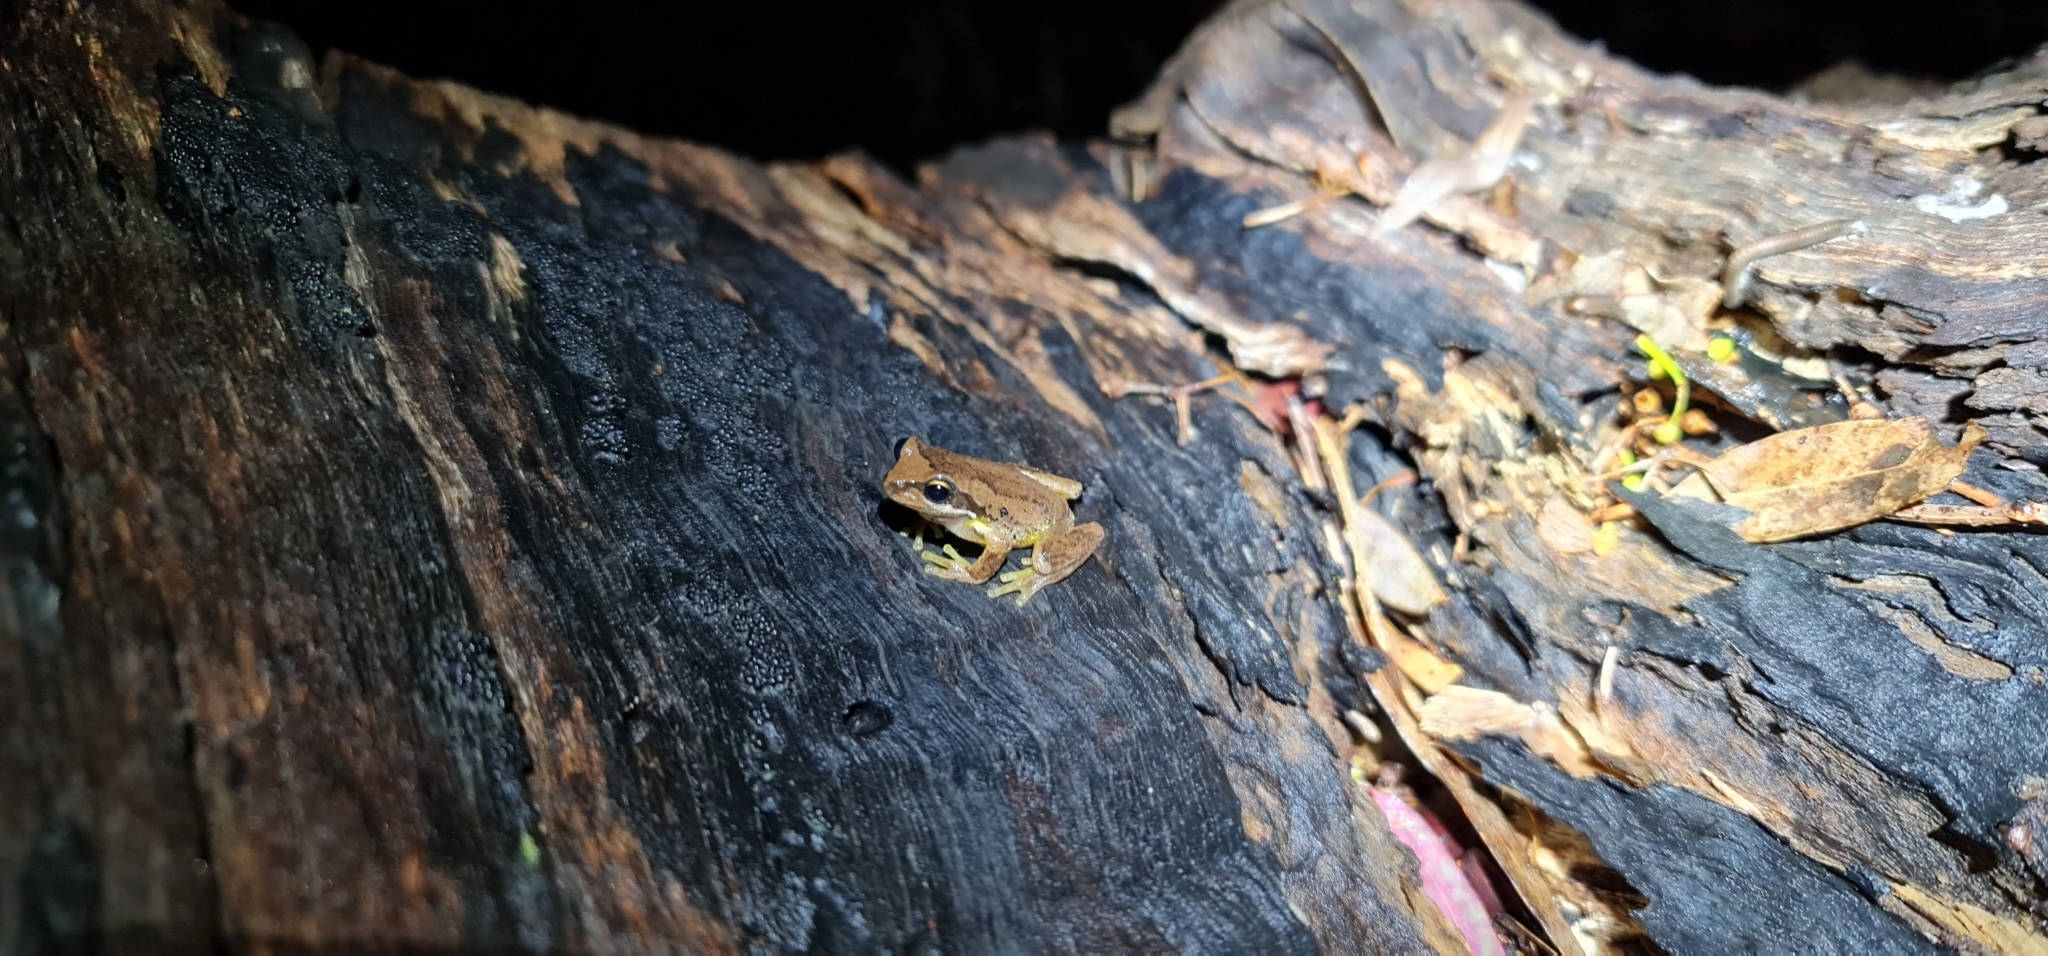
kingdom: Animalia
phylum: Chordata
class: Amphibia
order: Anura
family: Pelodryadidae
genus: Litoria
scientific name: Litoria
